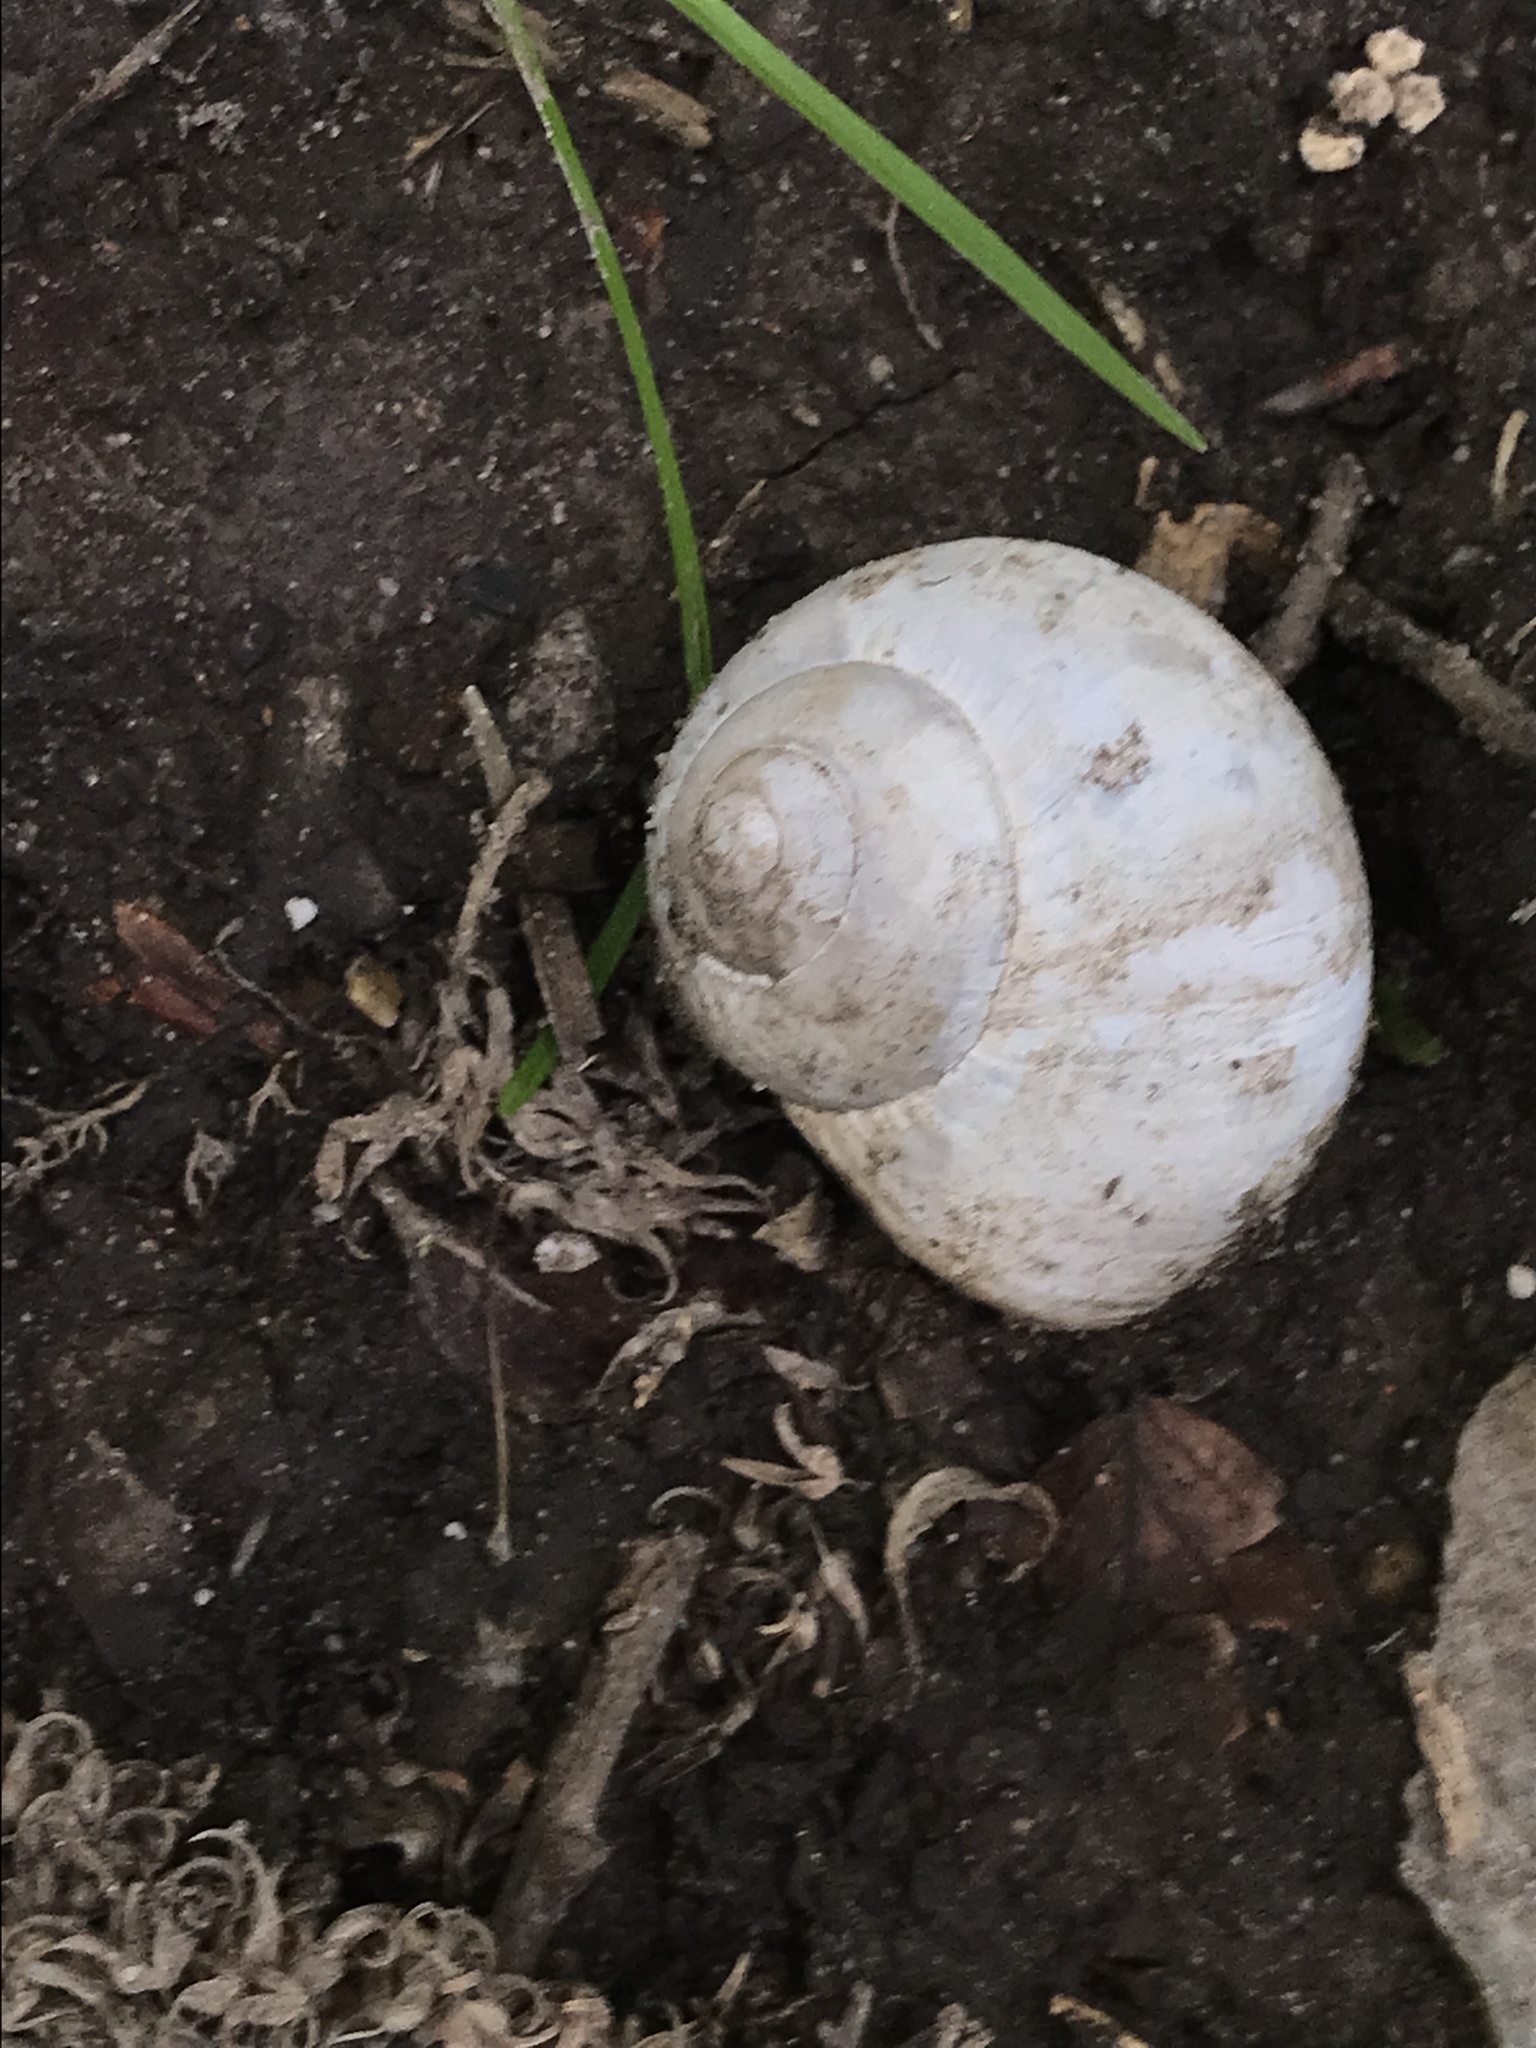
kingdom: Animalia
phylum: Mollusca
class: Gastropoda
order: Stylommatophora
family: Helicidae
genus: Helix
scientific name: Helix pomatia
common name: Roman snail
